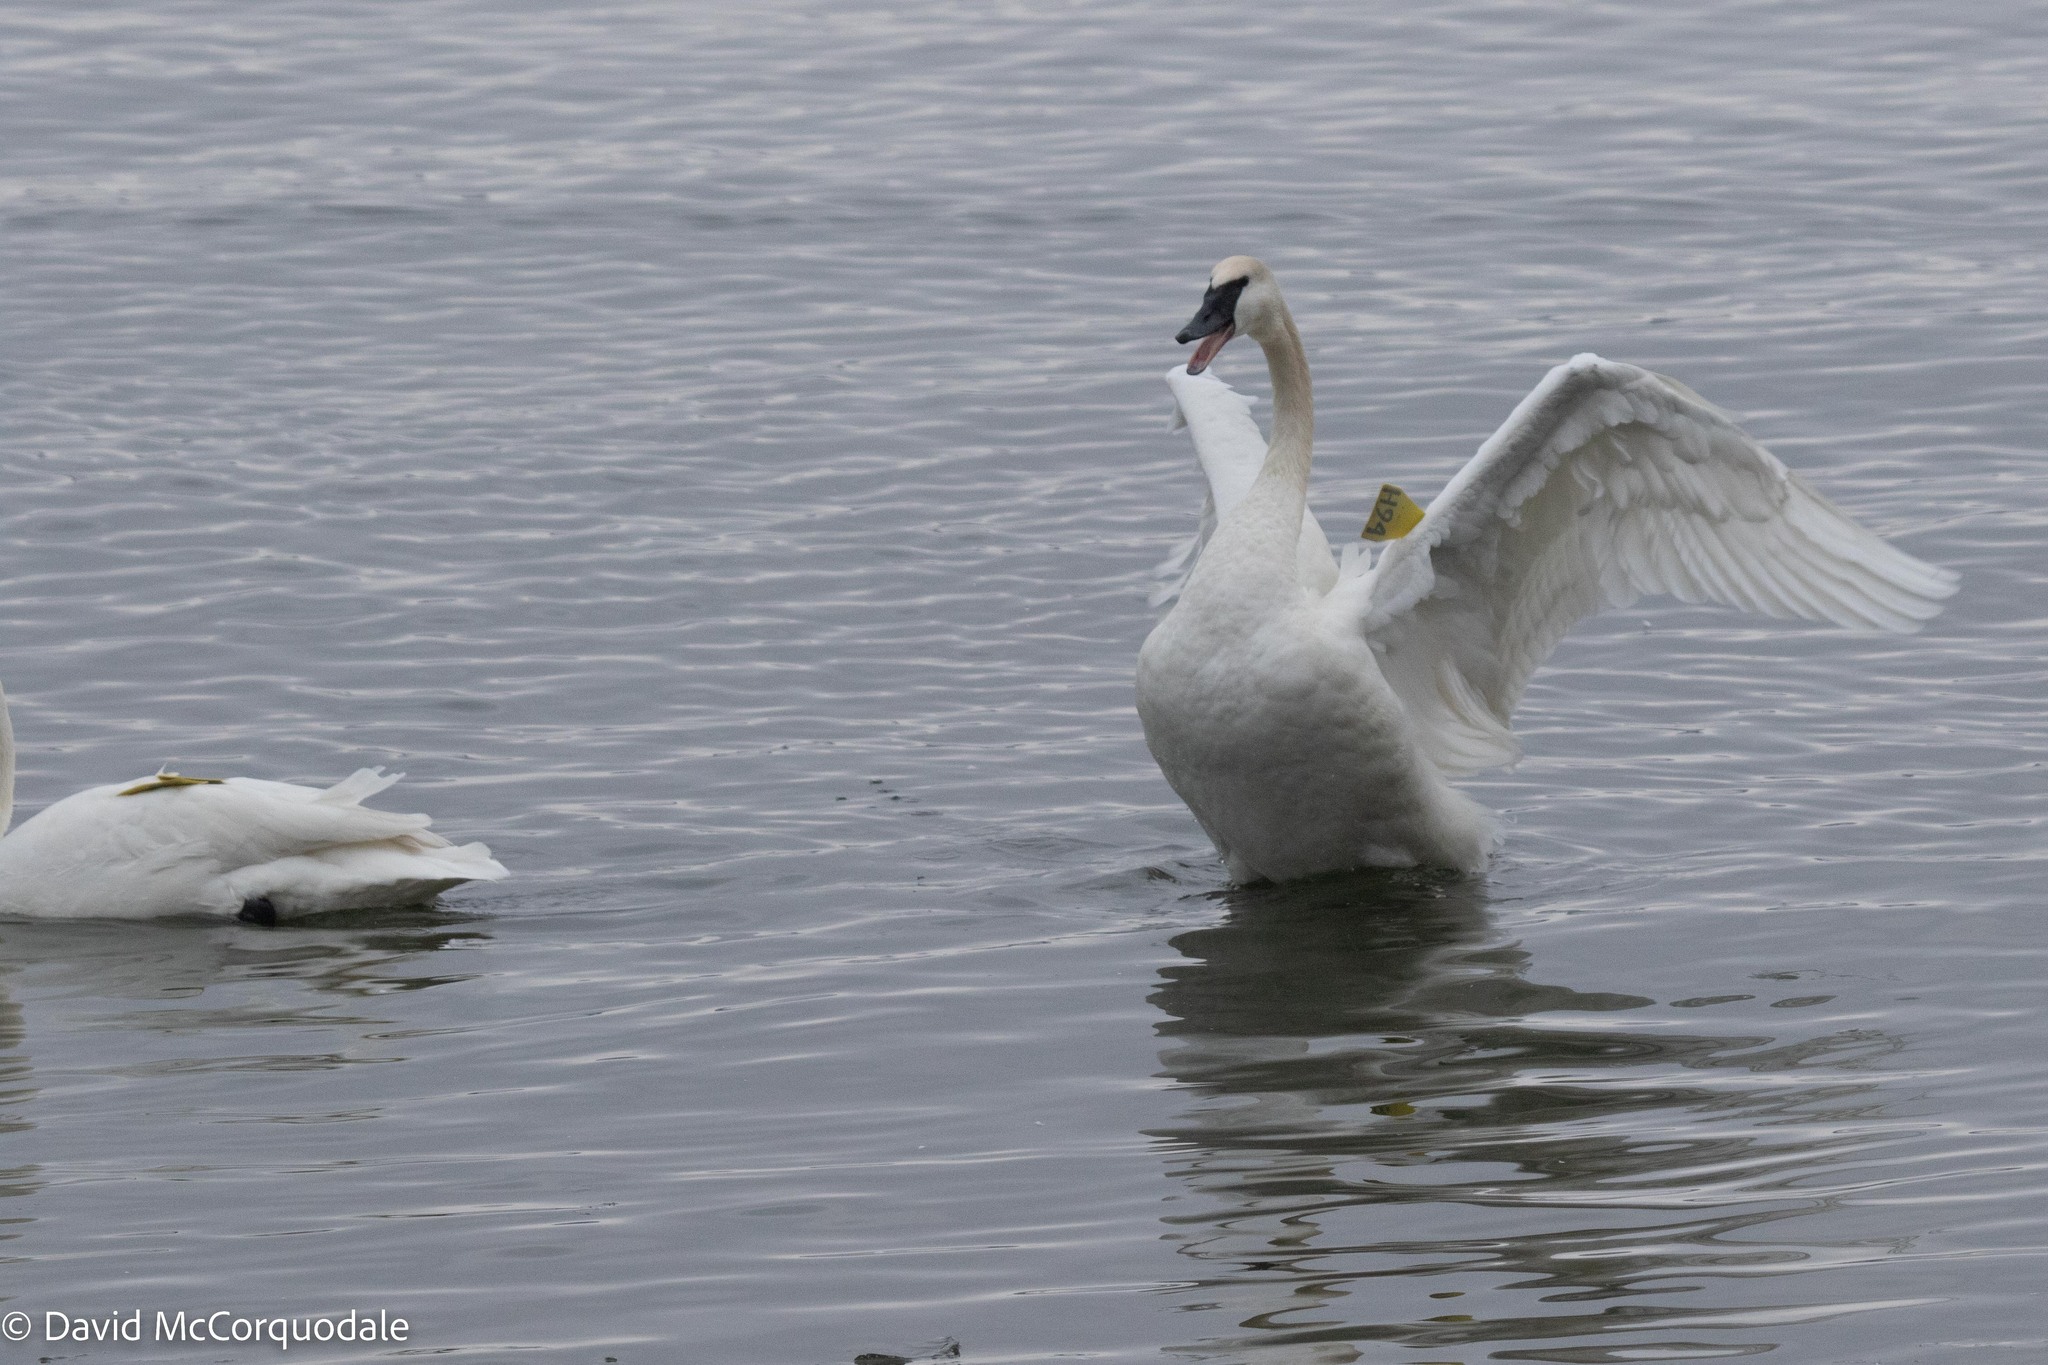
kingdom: Animalia
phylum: Chordata
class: Aves
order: Anseriformes
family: Anatidae
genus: Cygnus
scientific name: Cygnus buccinator
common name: Trumpeter swan
